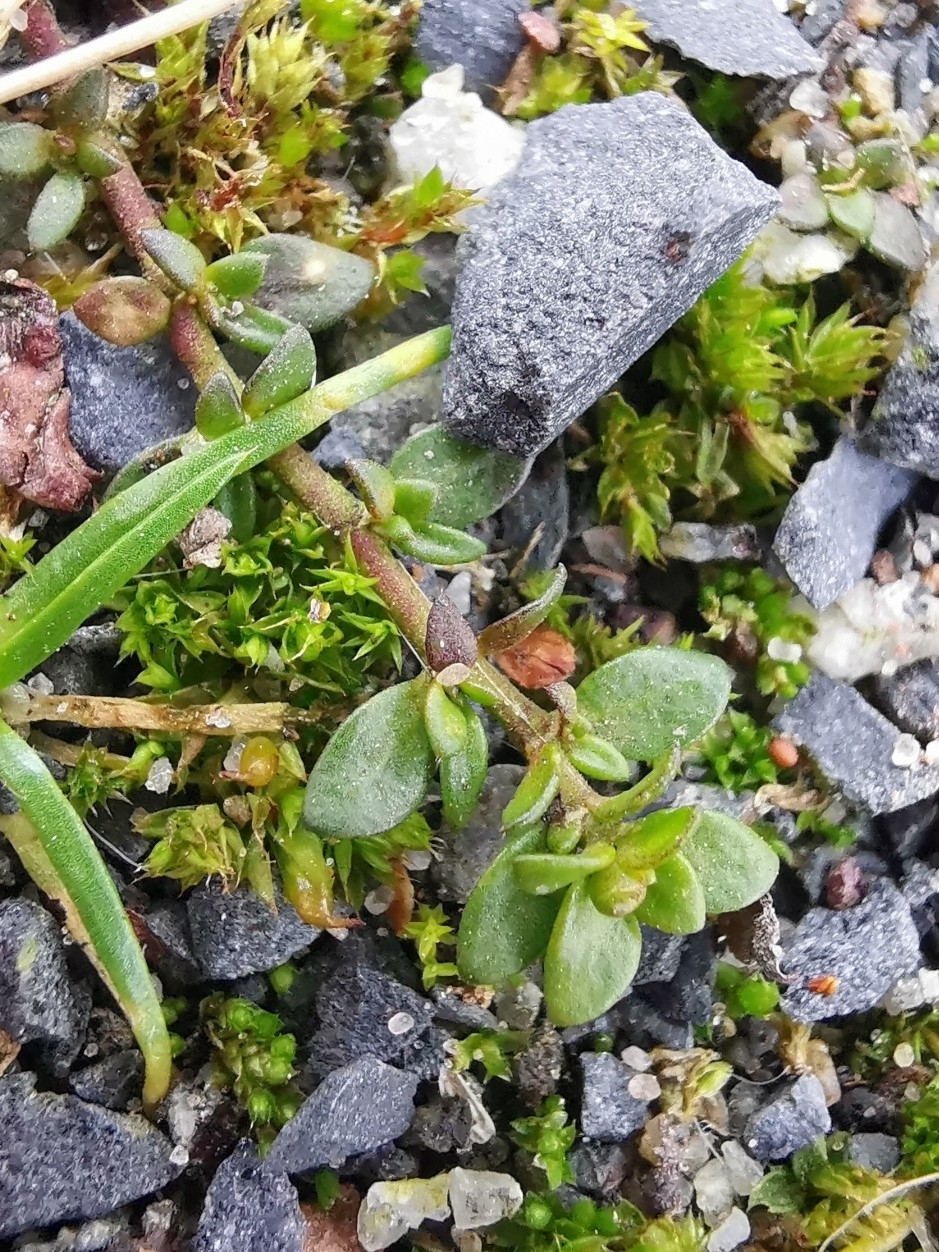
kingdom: Plantae
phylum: Tracheophyta
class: Magnoliopsida
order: Caryophyllales
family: Caryophyllaceae
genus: Herniaria
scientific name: Herniaria glabra
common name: Smooth rupturewort
